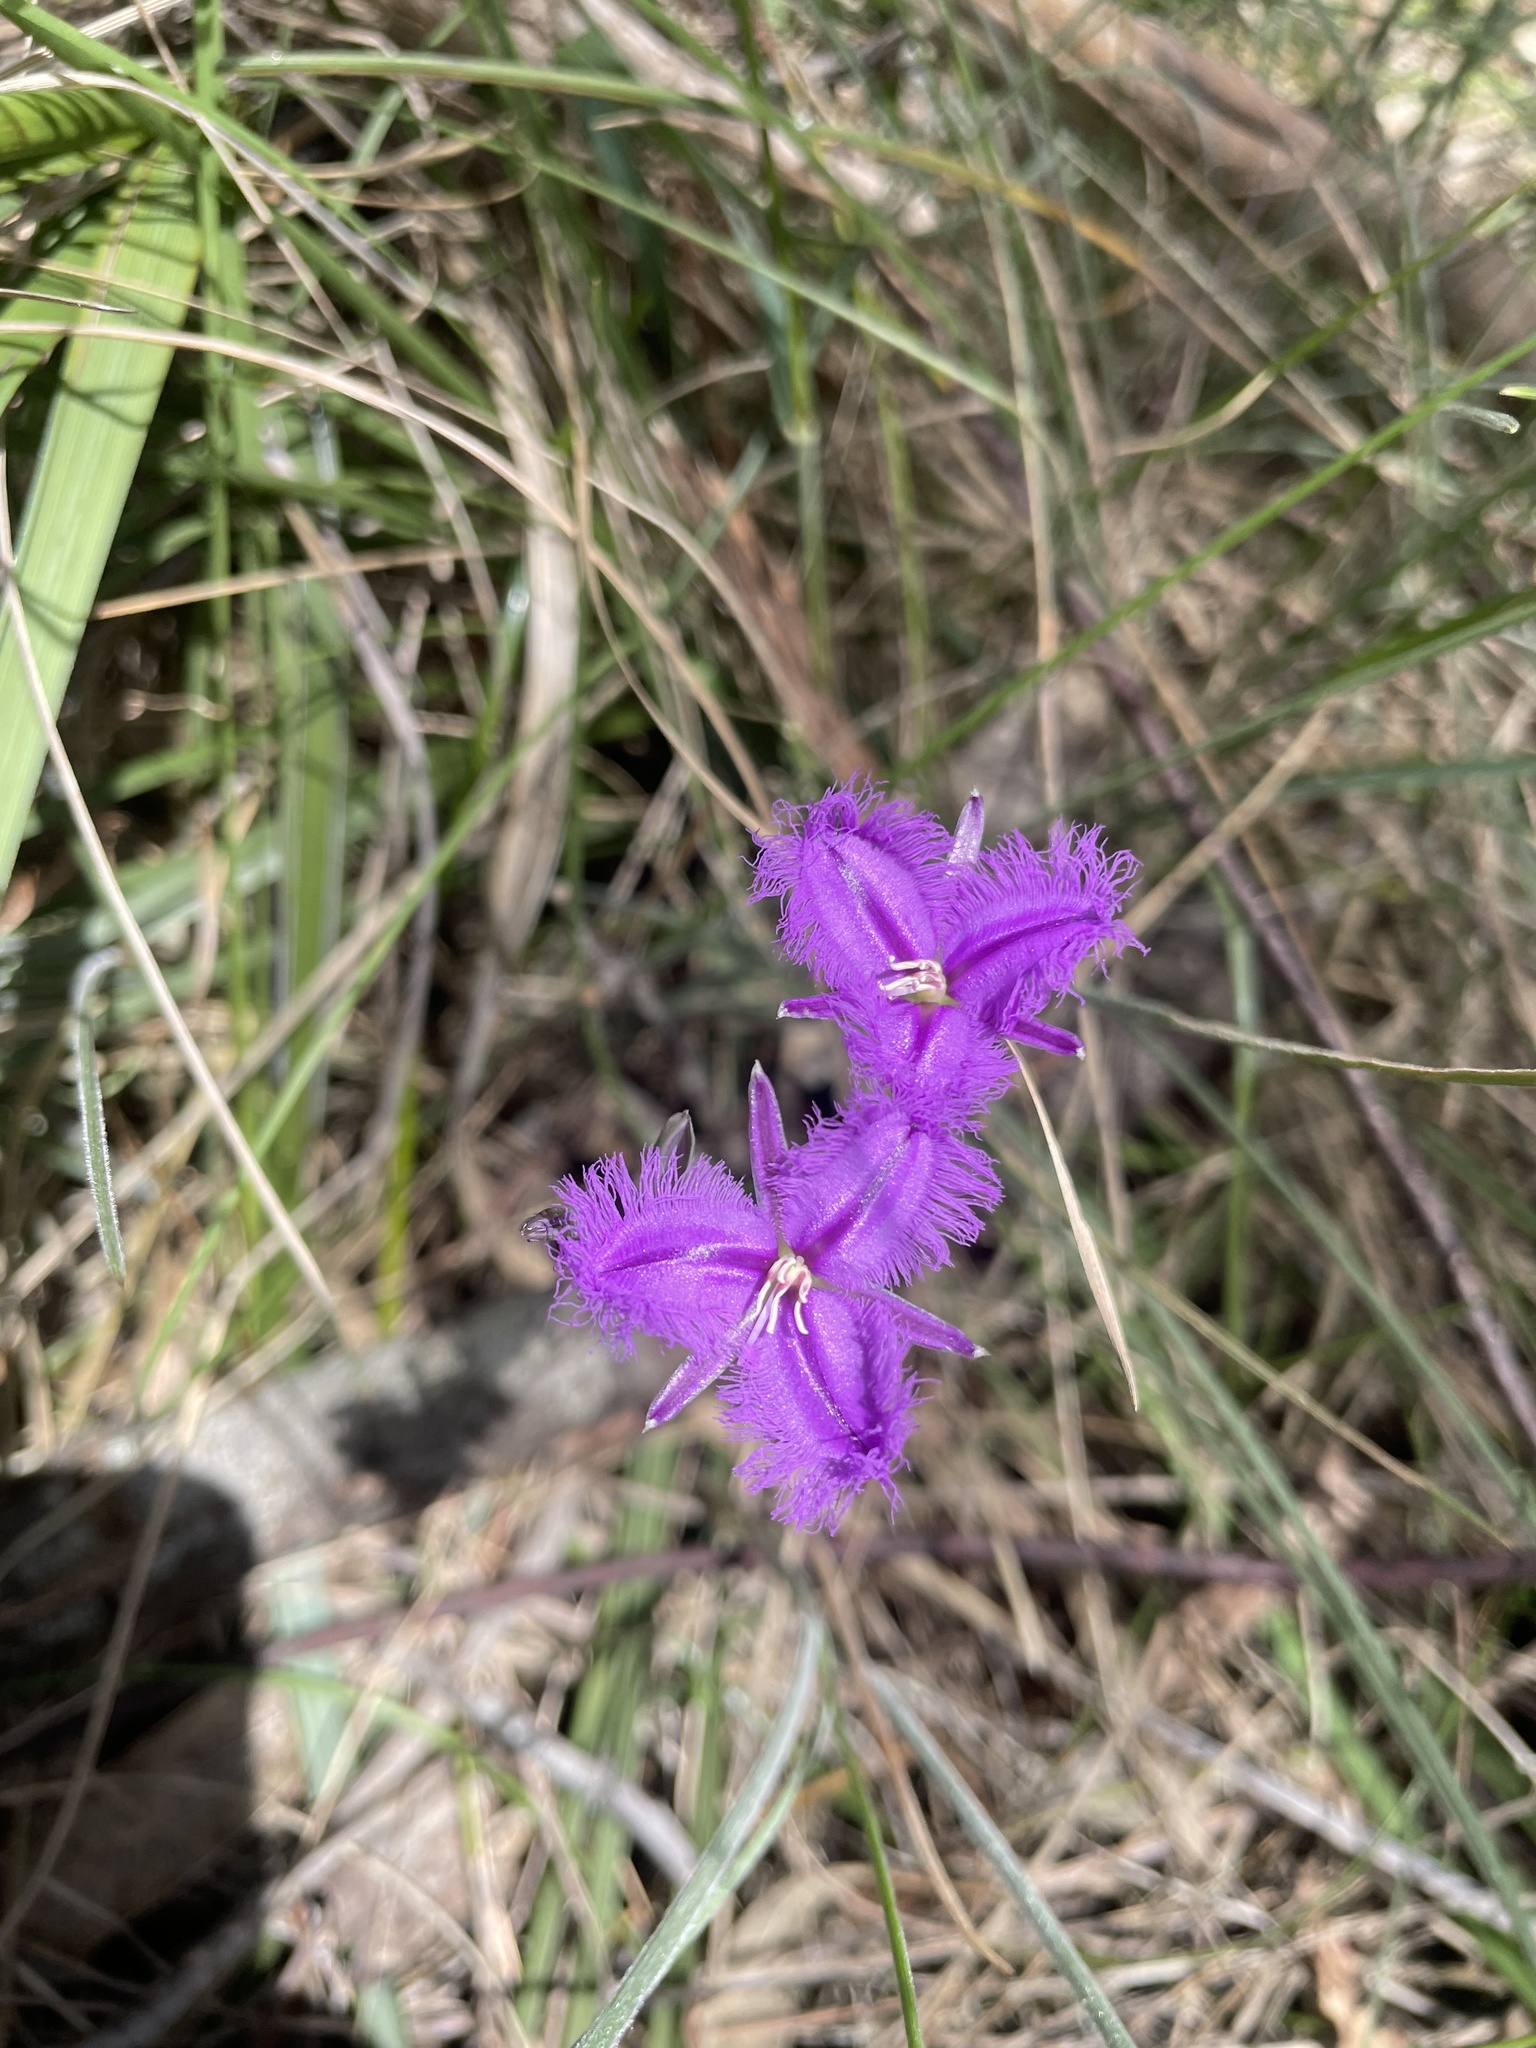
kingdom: Plantae
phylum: Tracheophyta
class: Liliopsida
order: Asparagales
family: Asparagaceae
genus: Thysanotus
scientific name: Thysanotus tuberosus
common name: Common fringed-lily
